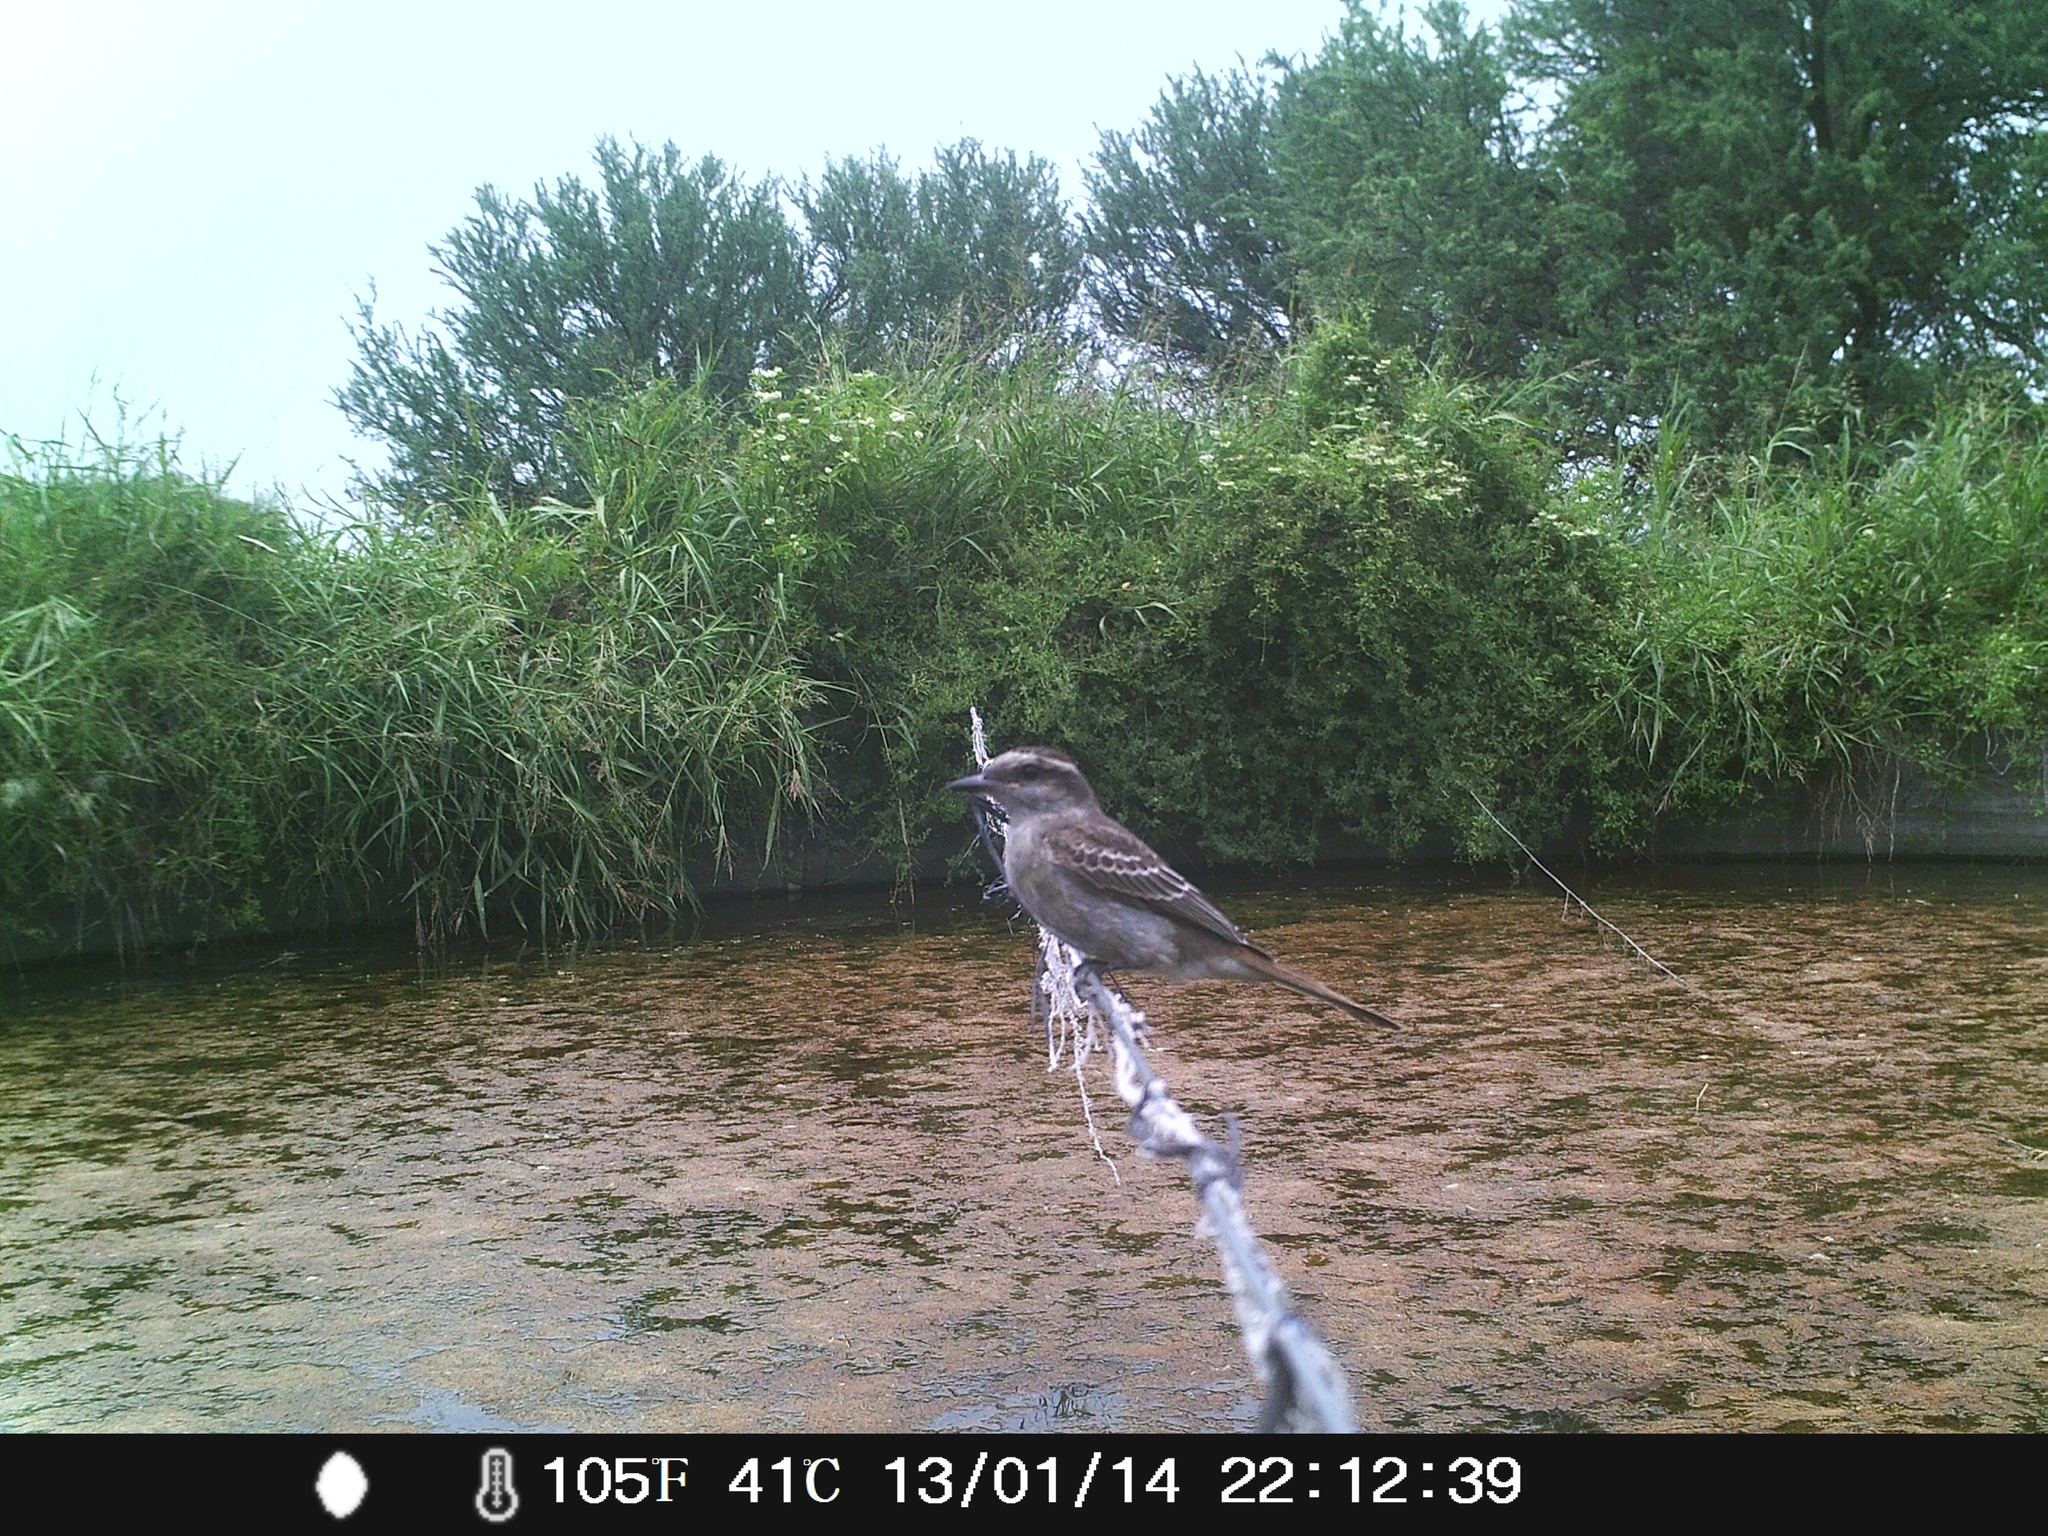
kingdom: Animalia
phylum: Chordata
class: Aves
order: Passeriformes
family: Tyrannidae
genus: Empidonomus
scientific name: Empidonomus aurantioatrocristatus
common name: Crowned slaty flycatcher
